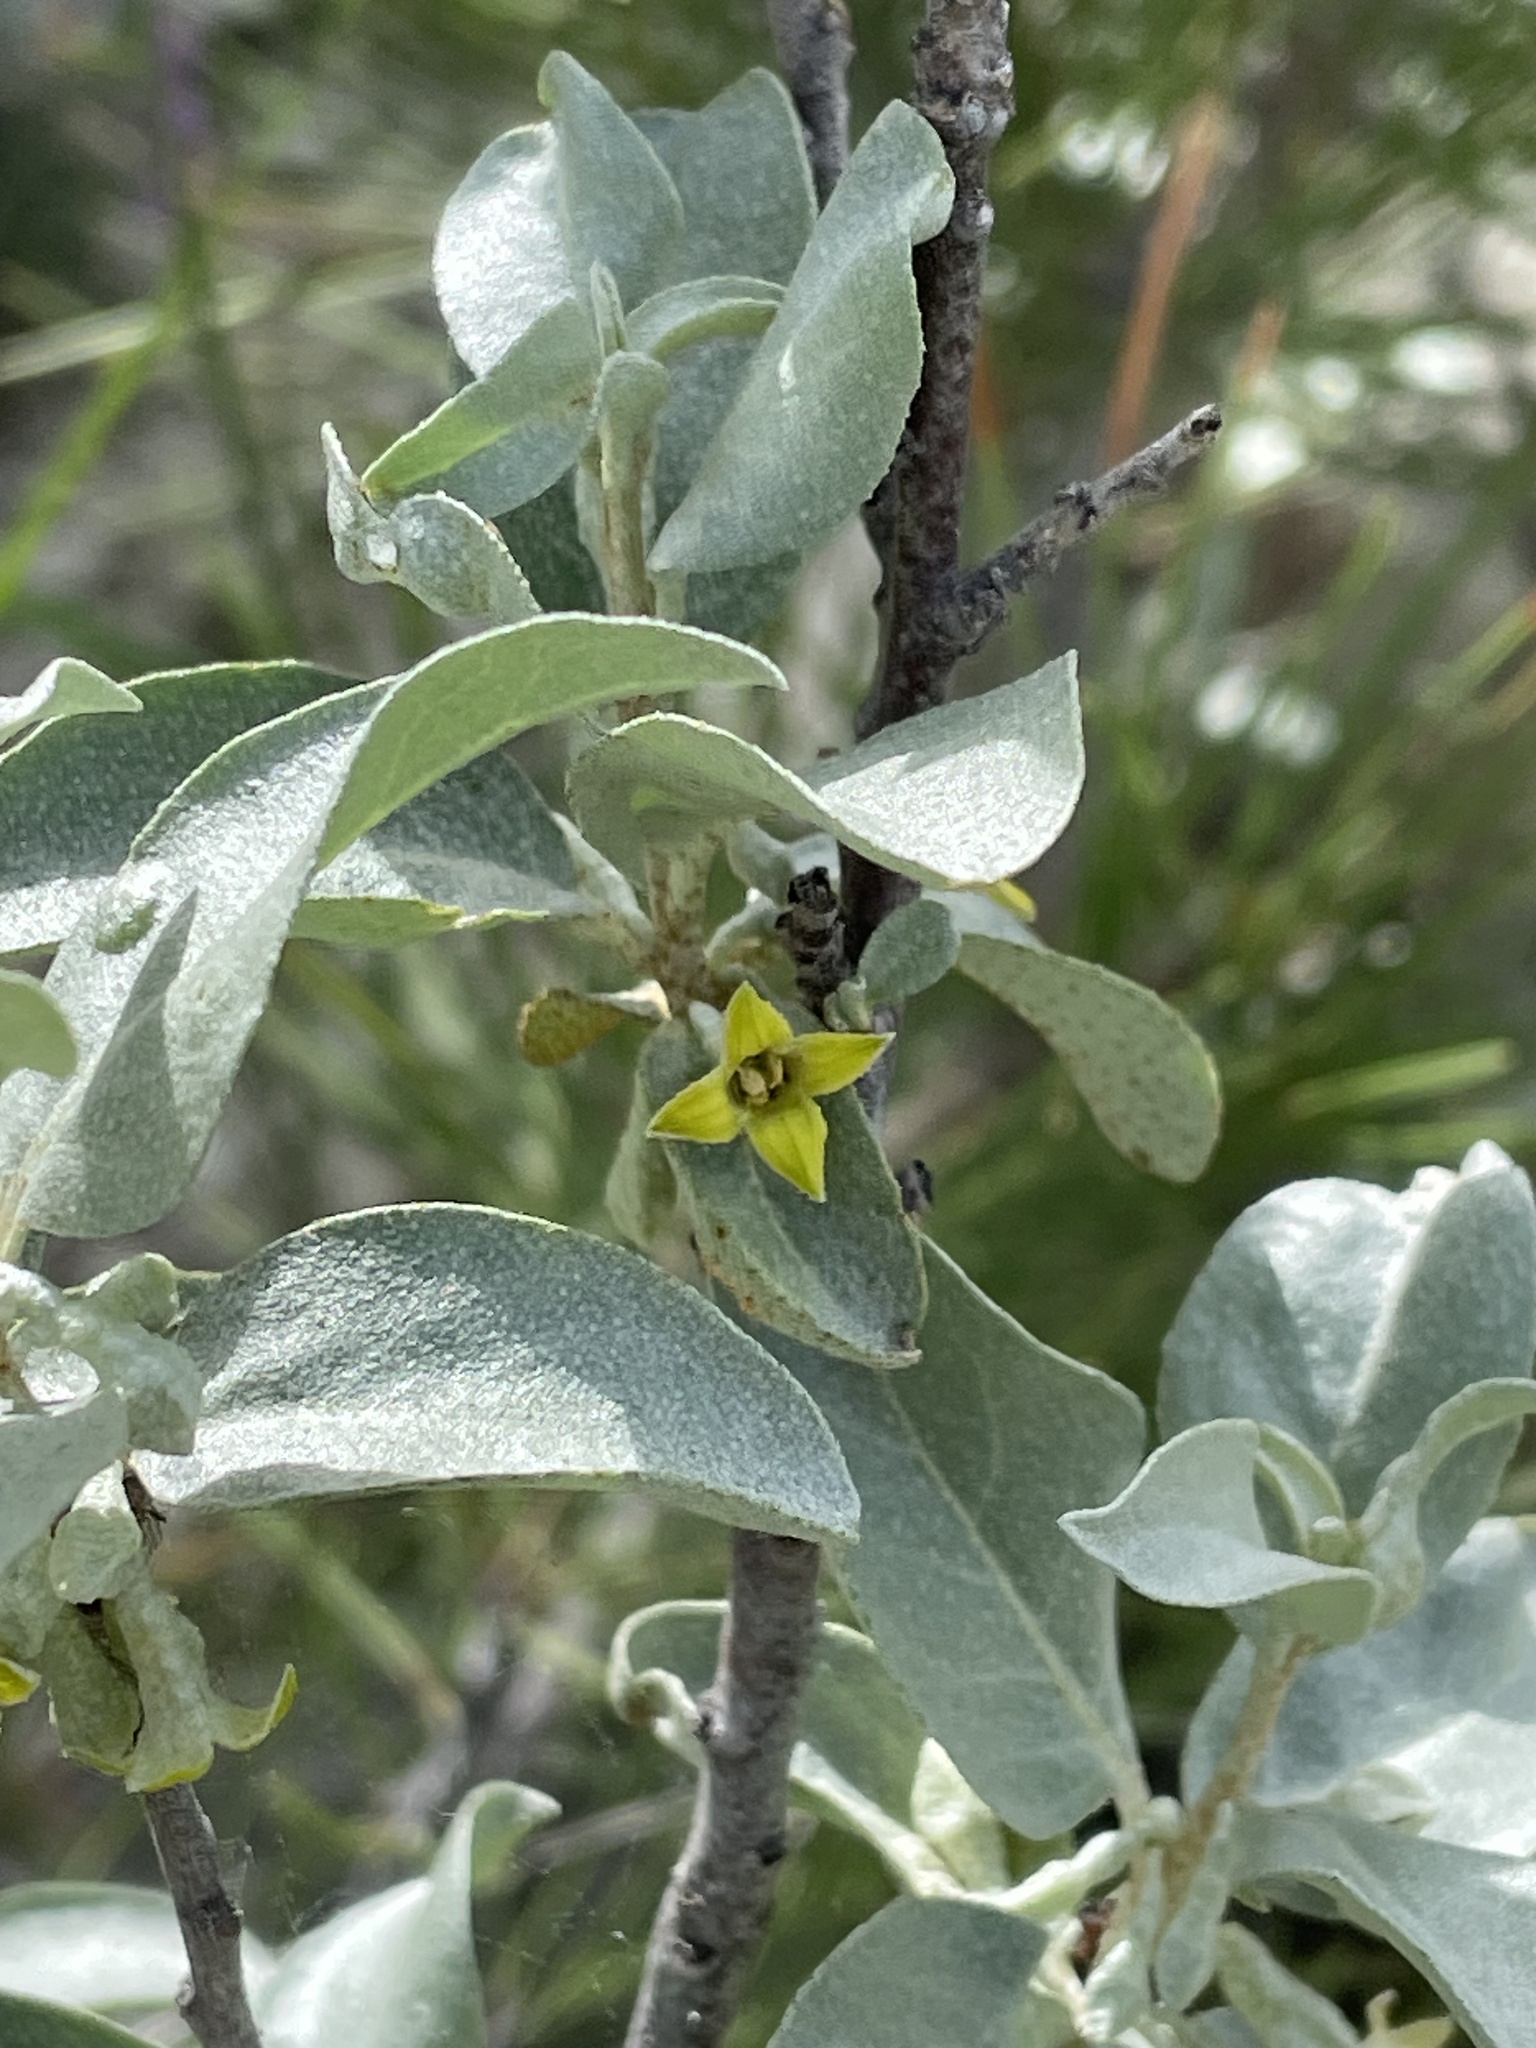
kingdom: Plantae
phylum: Tracheophyta
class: Magnoliopsida
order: Rosales
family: Elaeagnaceae
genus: Elaeagnus
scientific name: Elaeagnus commutata
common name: Silverberry
